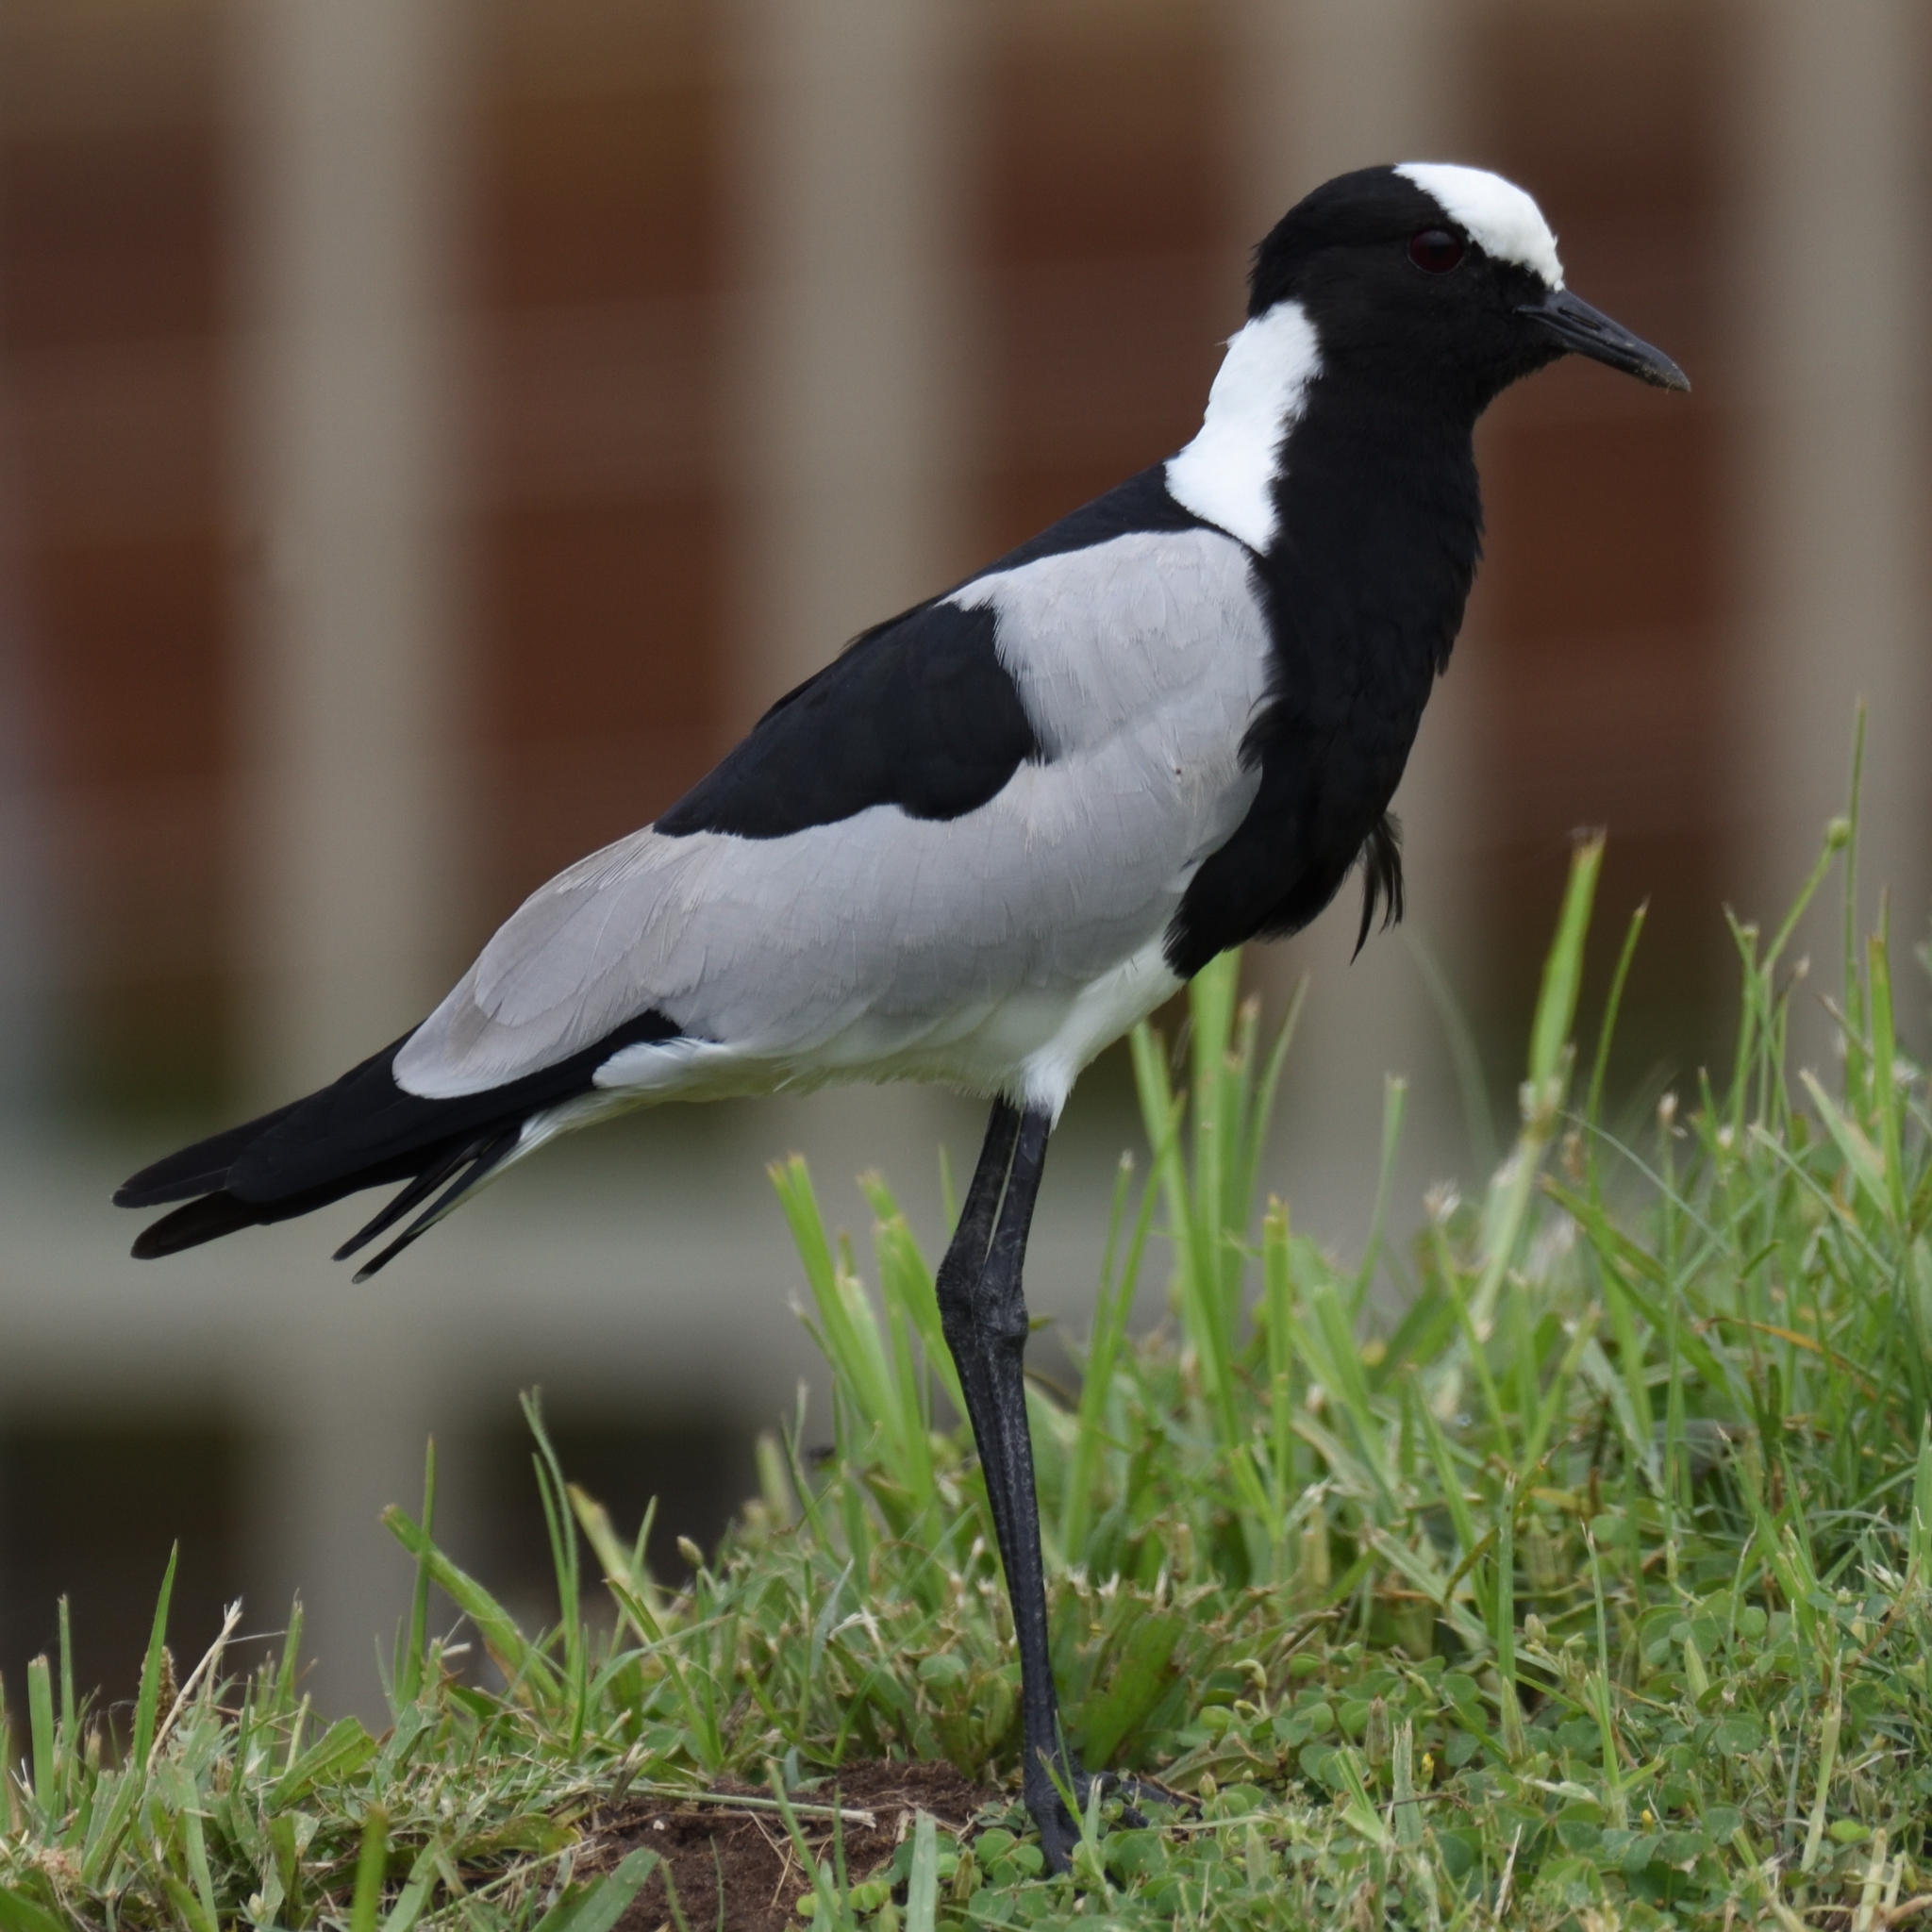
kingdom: Animalia
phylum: Chordata
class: Aves
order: Charadriiformes
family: Charadriidae
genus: Vanellus
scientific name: Vanellus armatus
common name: Blacksmith lapwing
